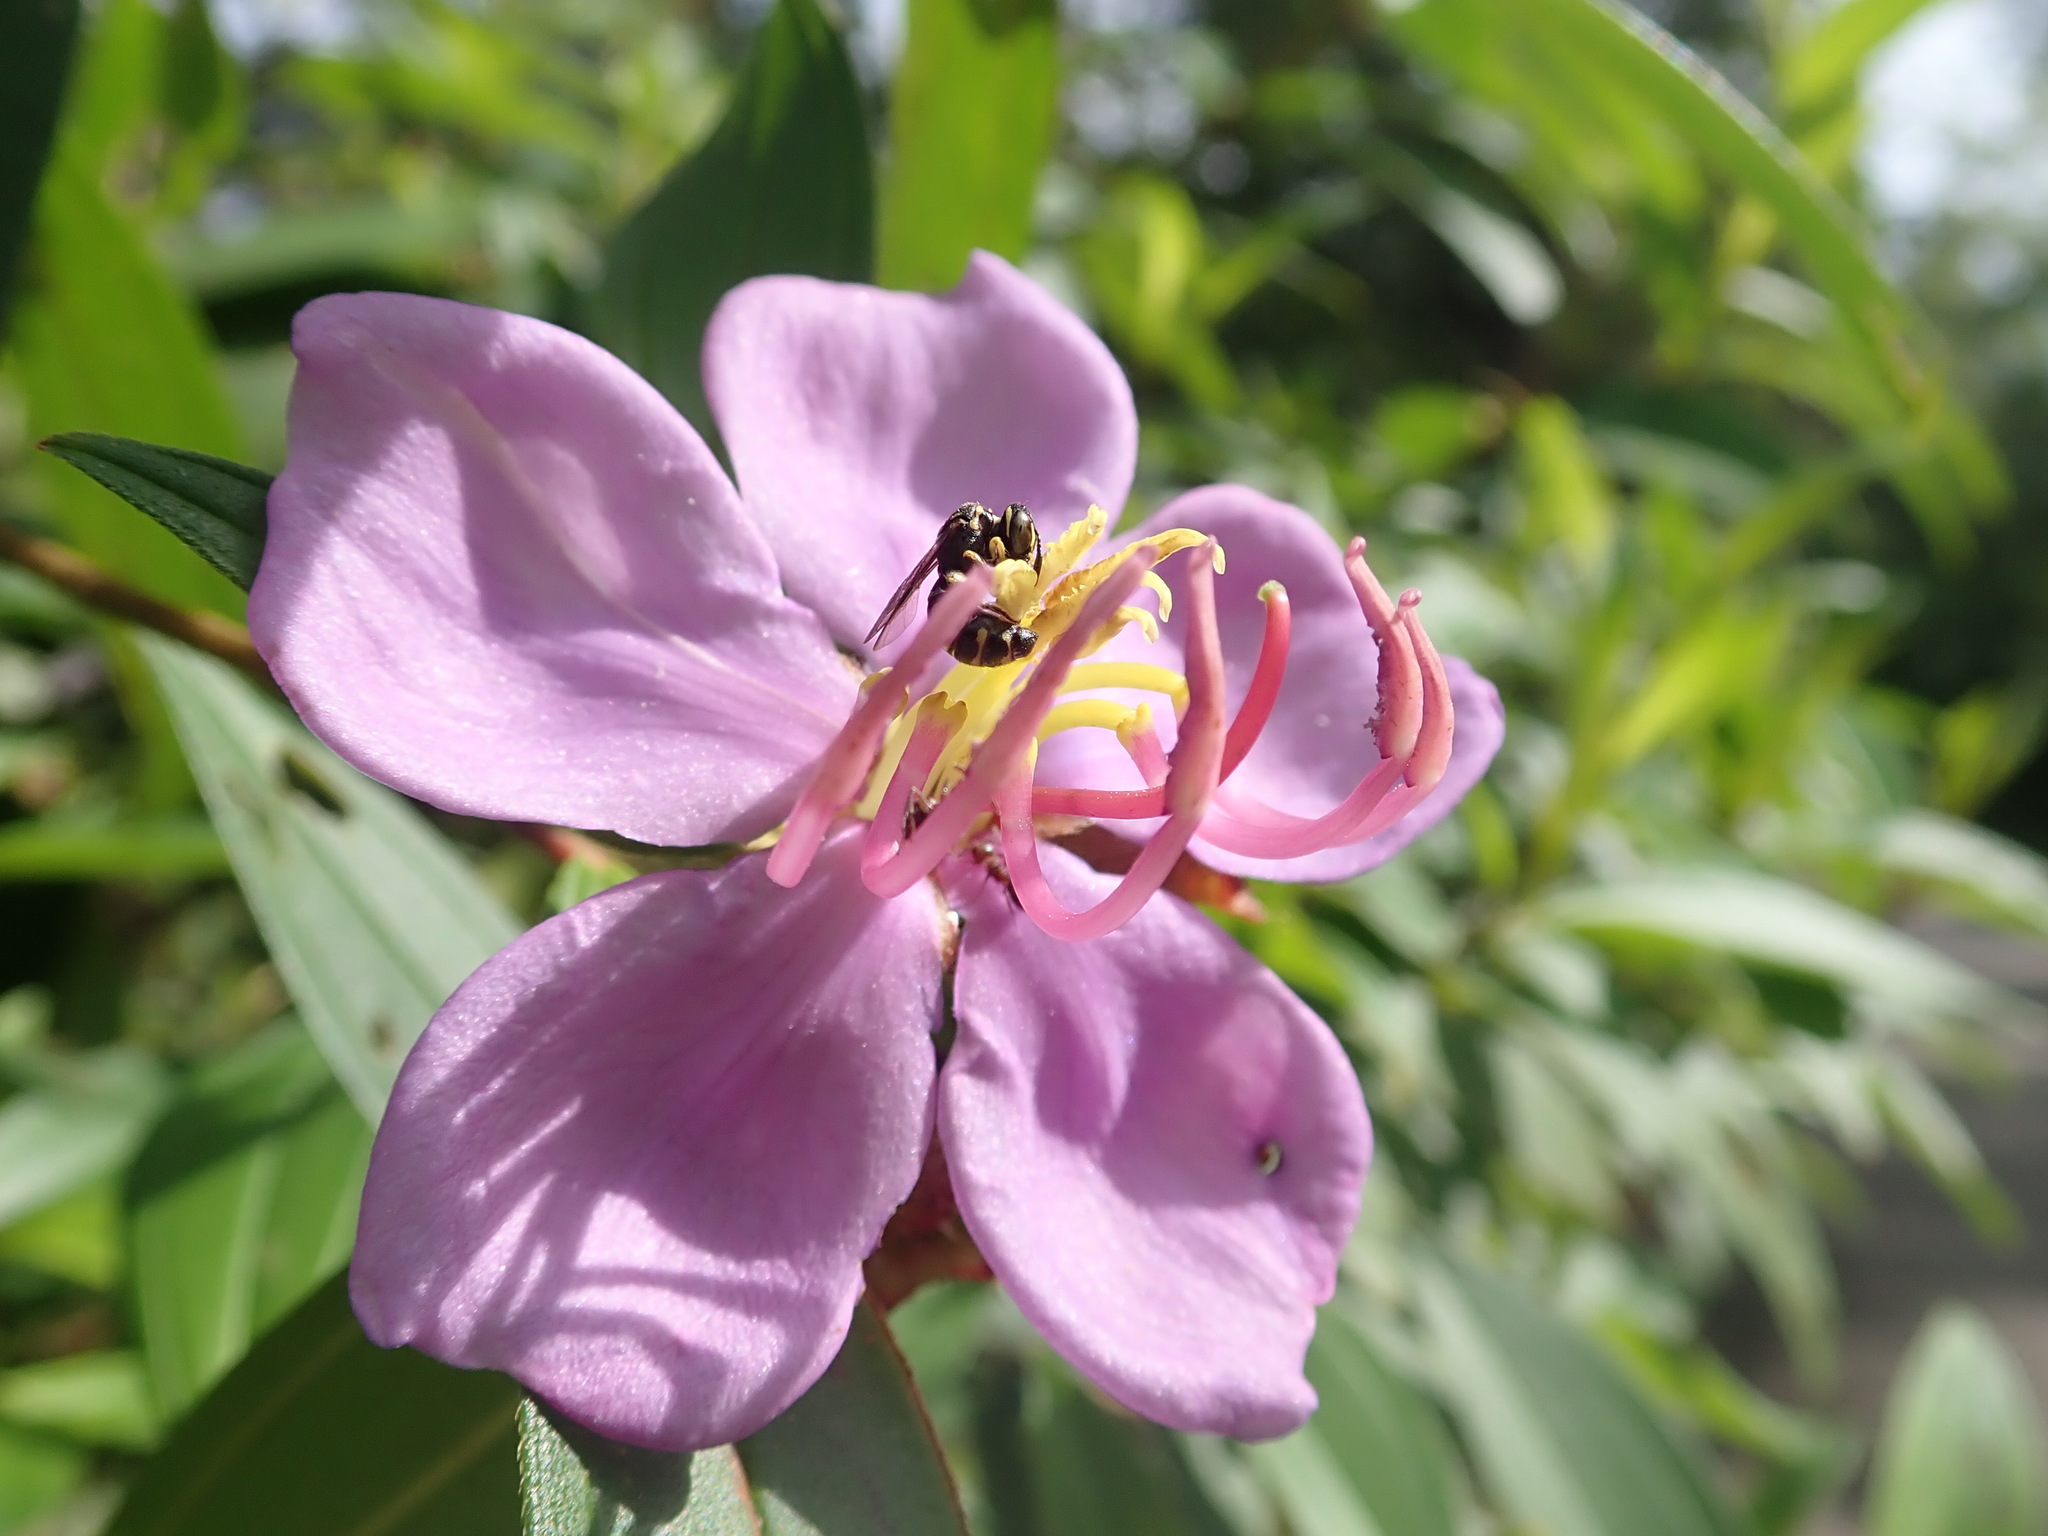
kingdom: Plantae
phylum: Tracheophyta
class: Magnoliopsida
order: Myrtales
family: Melastomataceae
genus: Melastoma
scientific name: Melastoma malabathricum
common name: Indian-rhododendron
